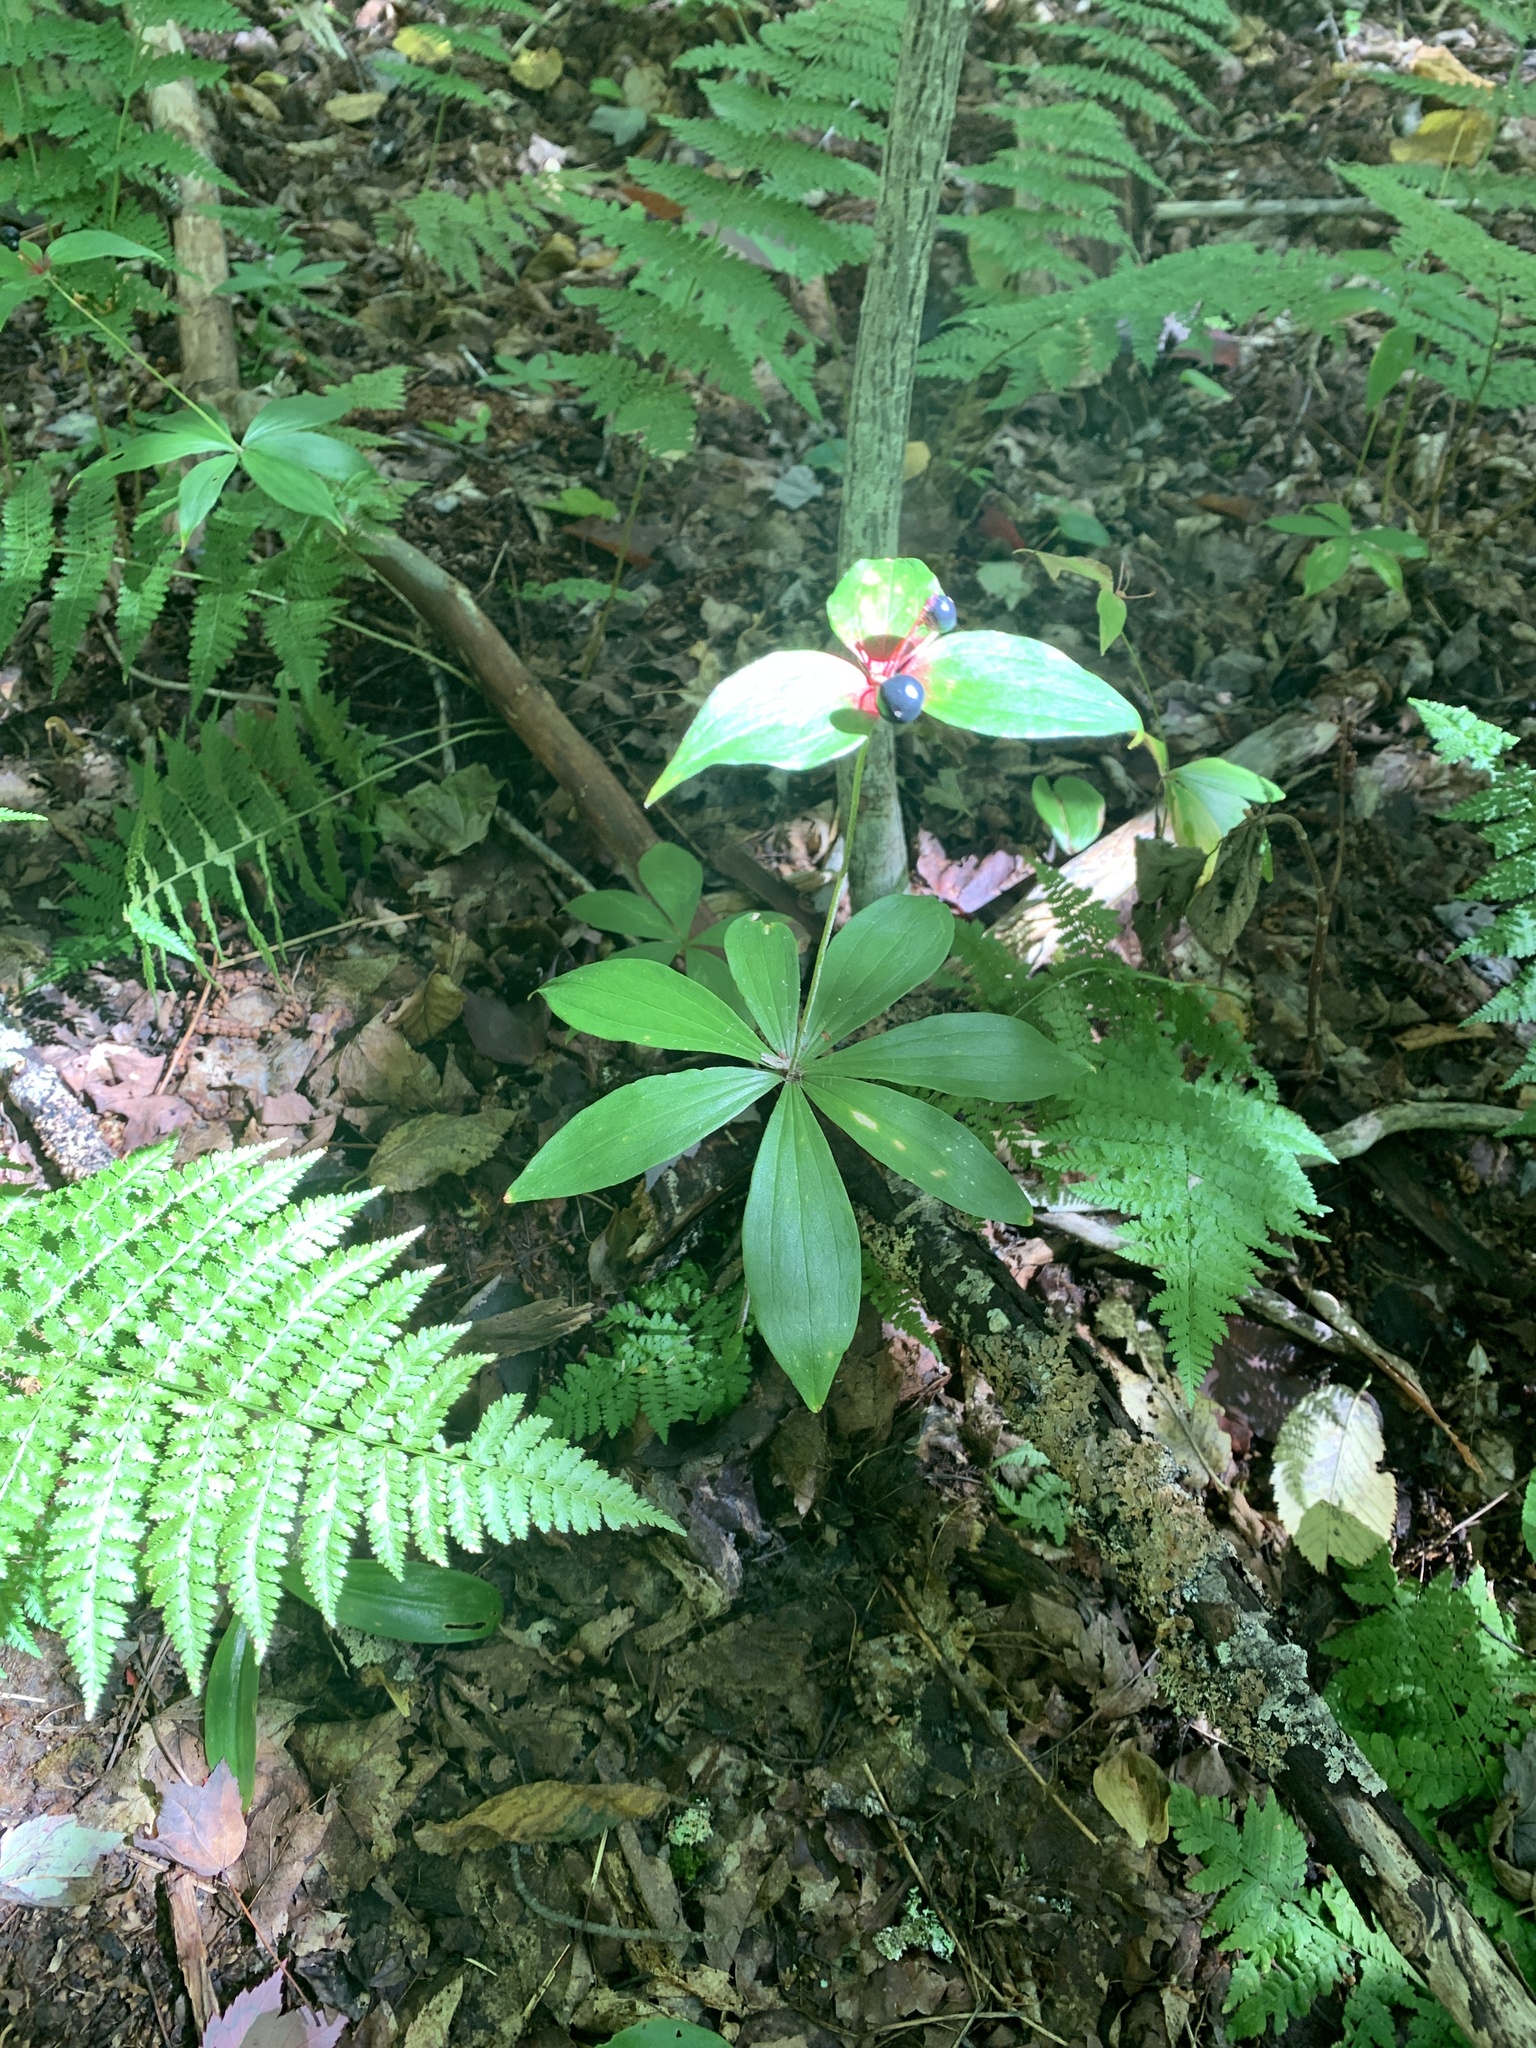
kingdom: Plantae
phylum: Tracheophyta
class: Liliopsida
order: Liliales
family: Liliaceae
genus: Medeola
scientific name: Medeola virginiana
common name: Indian cucumber-root
